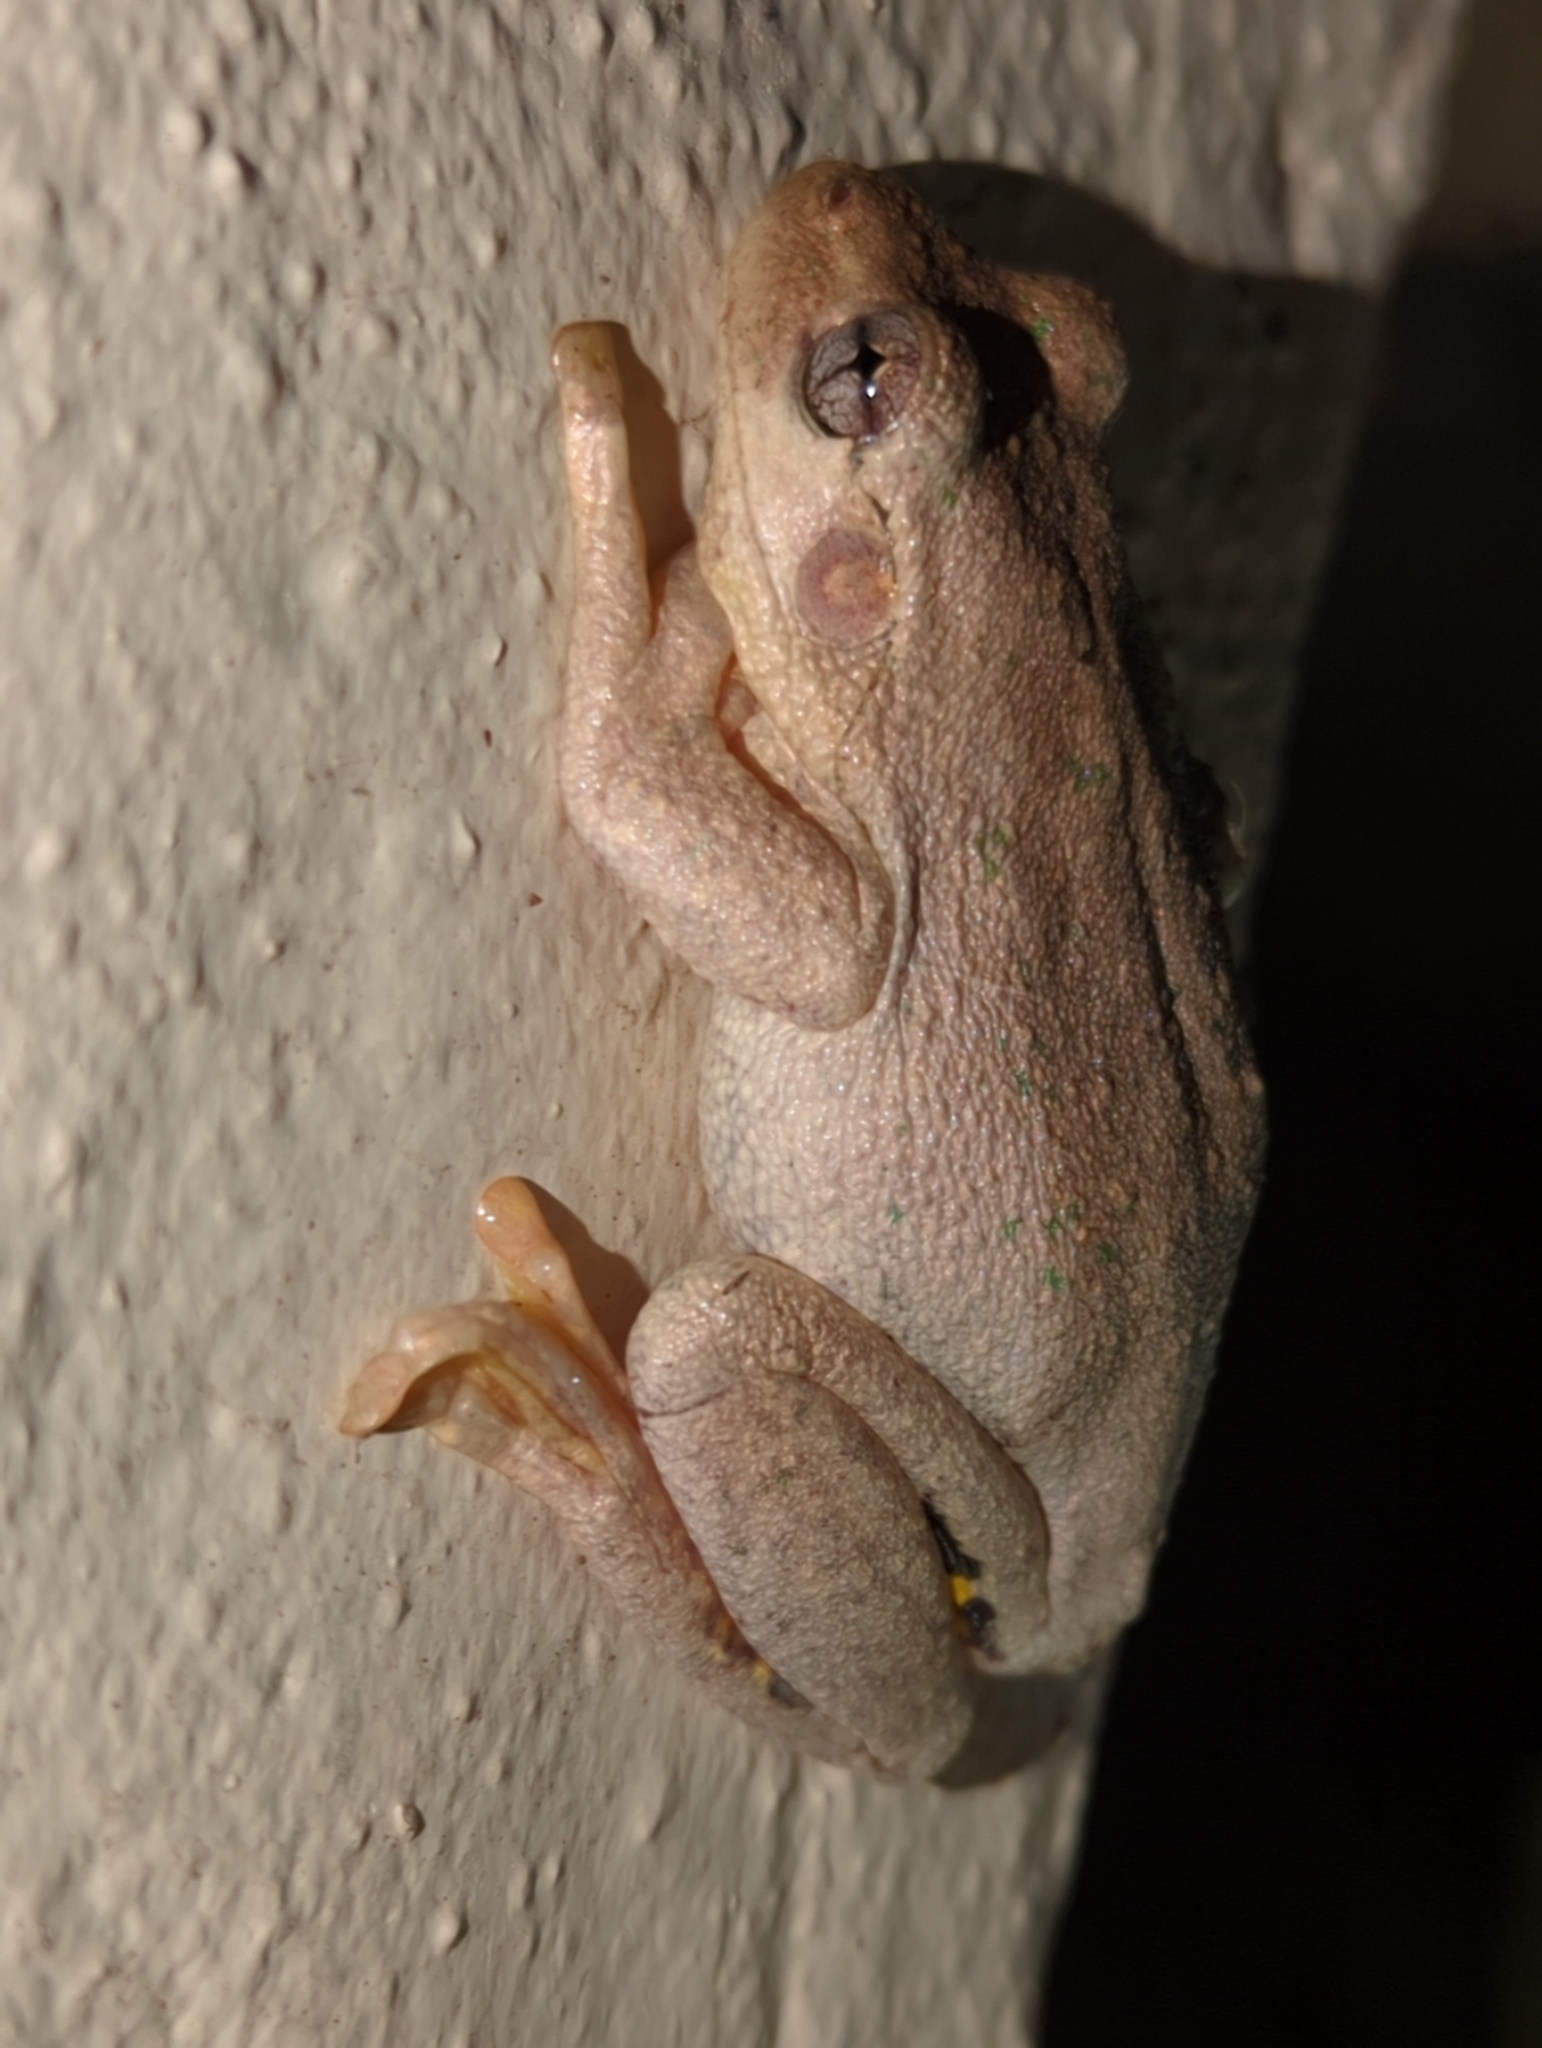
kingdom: Animalia
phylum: Chordata
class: Amphibia
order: Anura
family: Pelodryadidae
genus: Litoria
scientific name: Litoria peronii
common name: Emerald spotted treefrog
